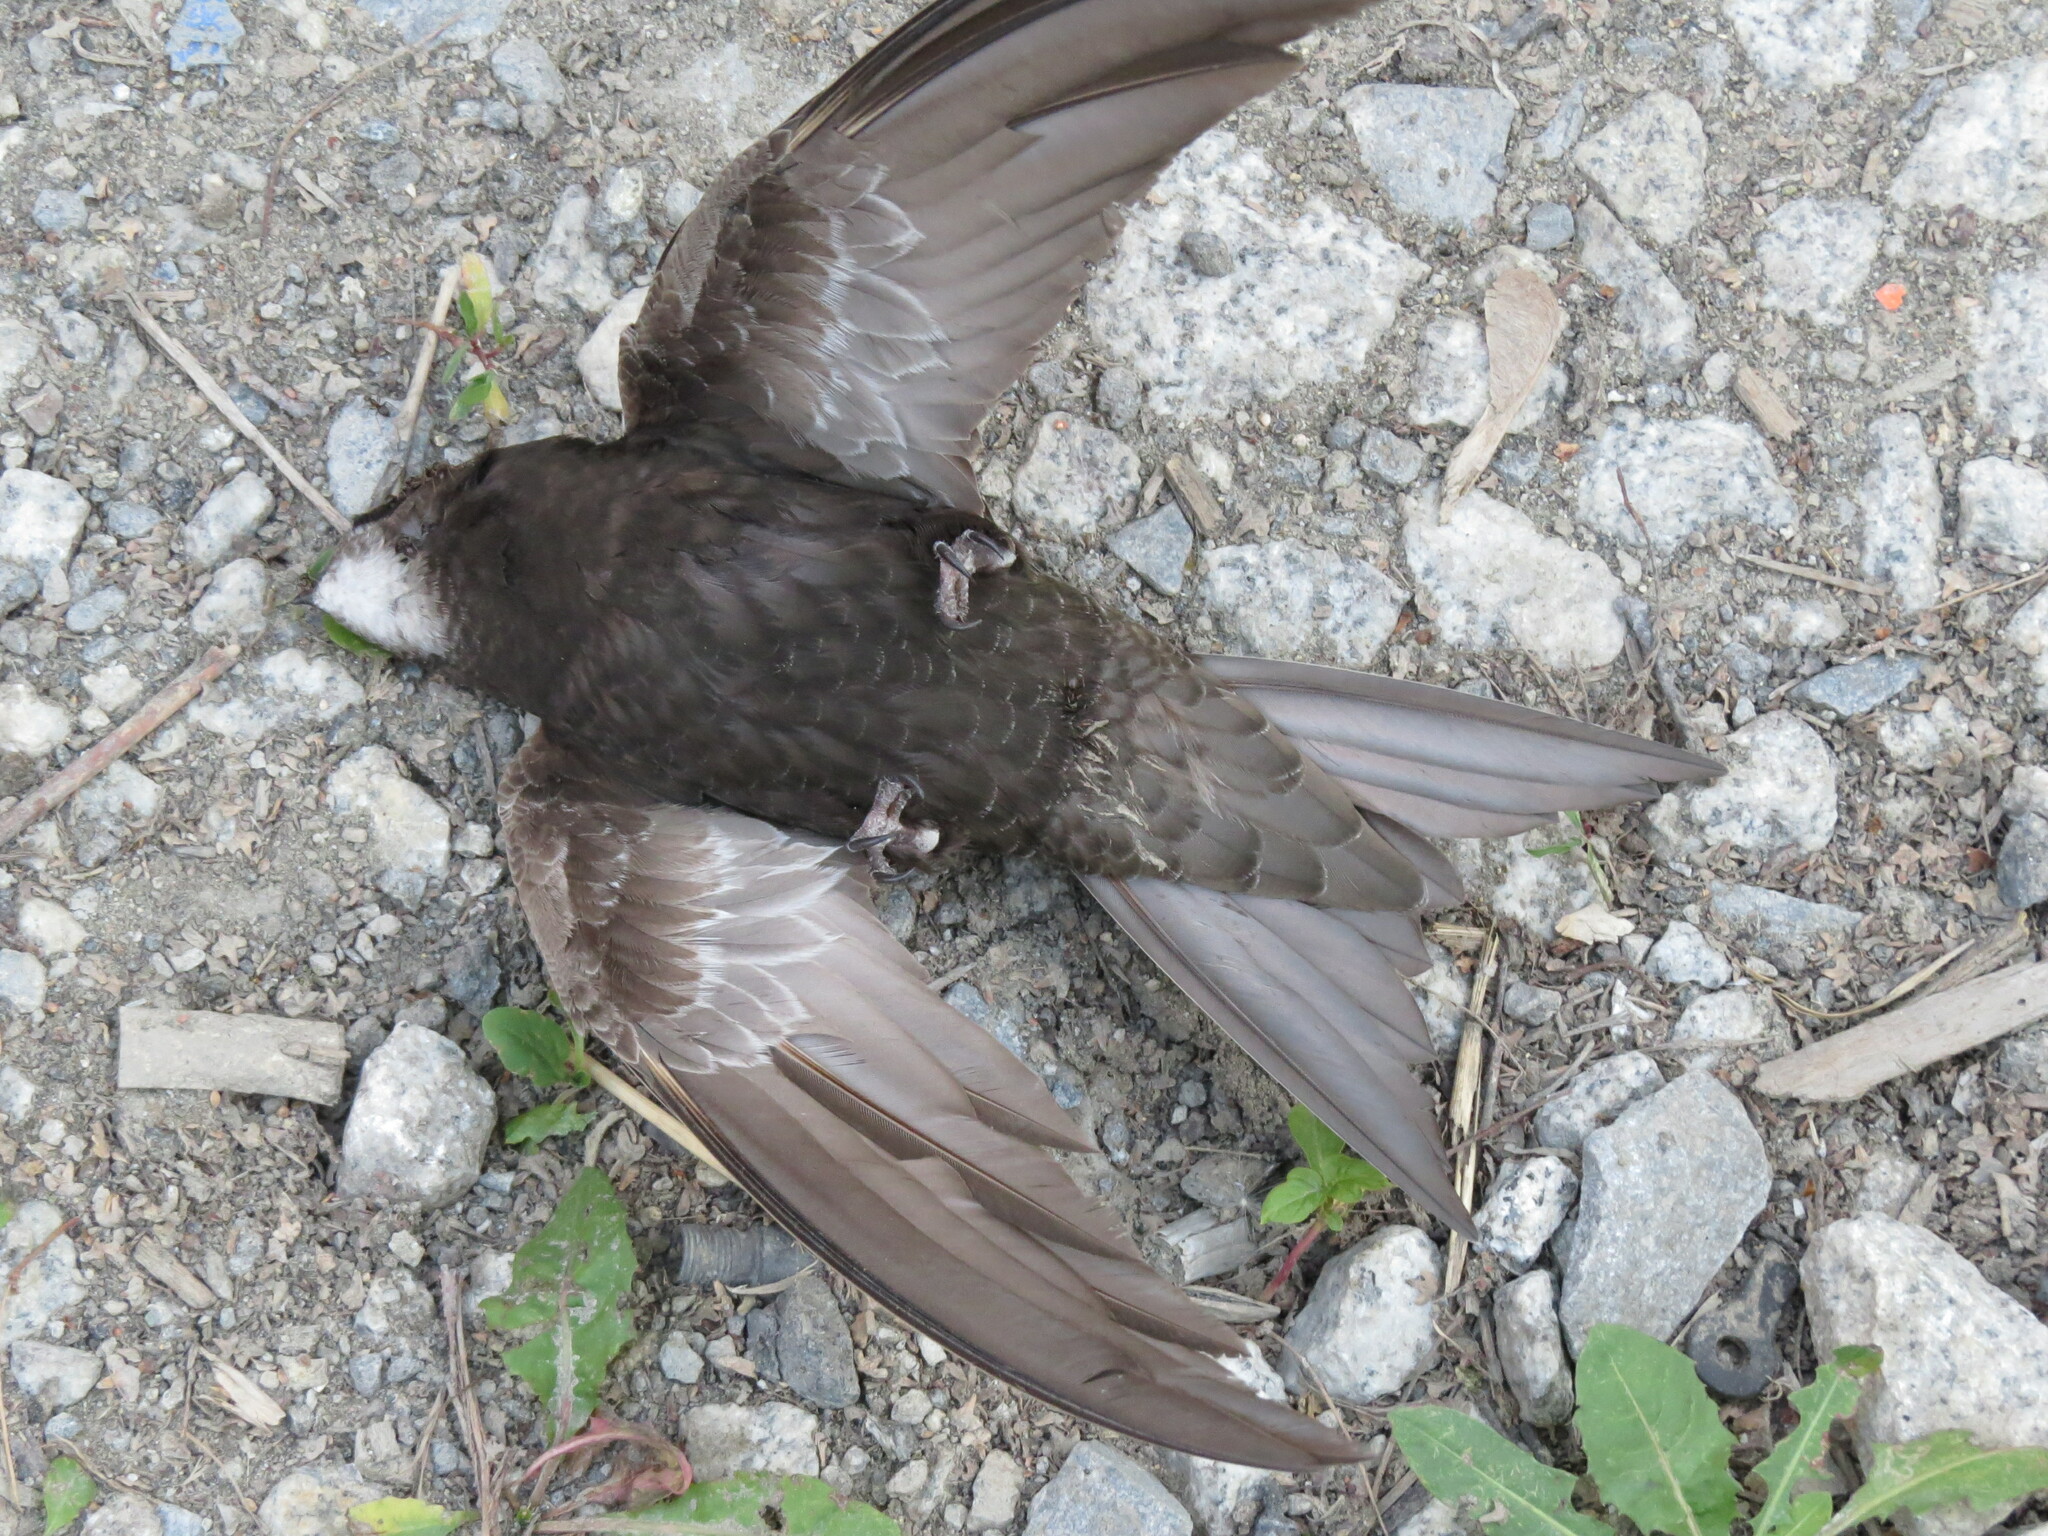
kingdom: Animalia
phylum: Chordata
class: Aves
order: Apodiformes
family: Apodidae
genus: Apus
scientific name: Apus apus
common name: Common swift
